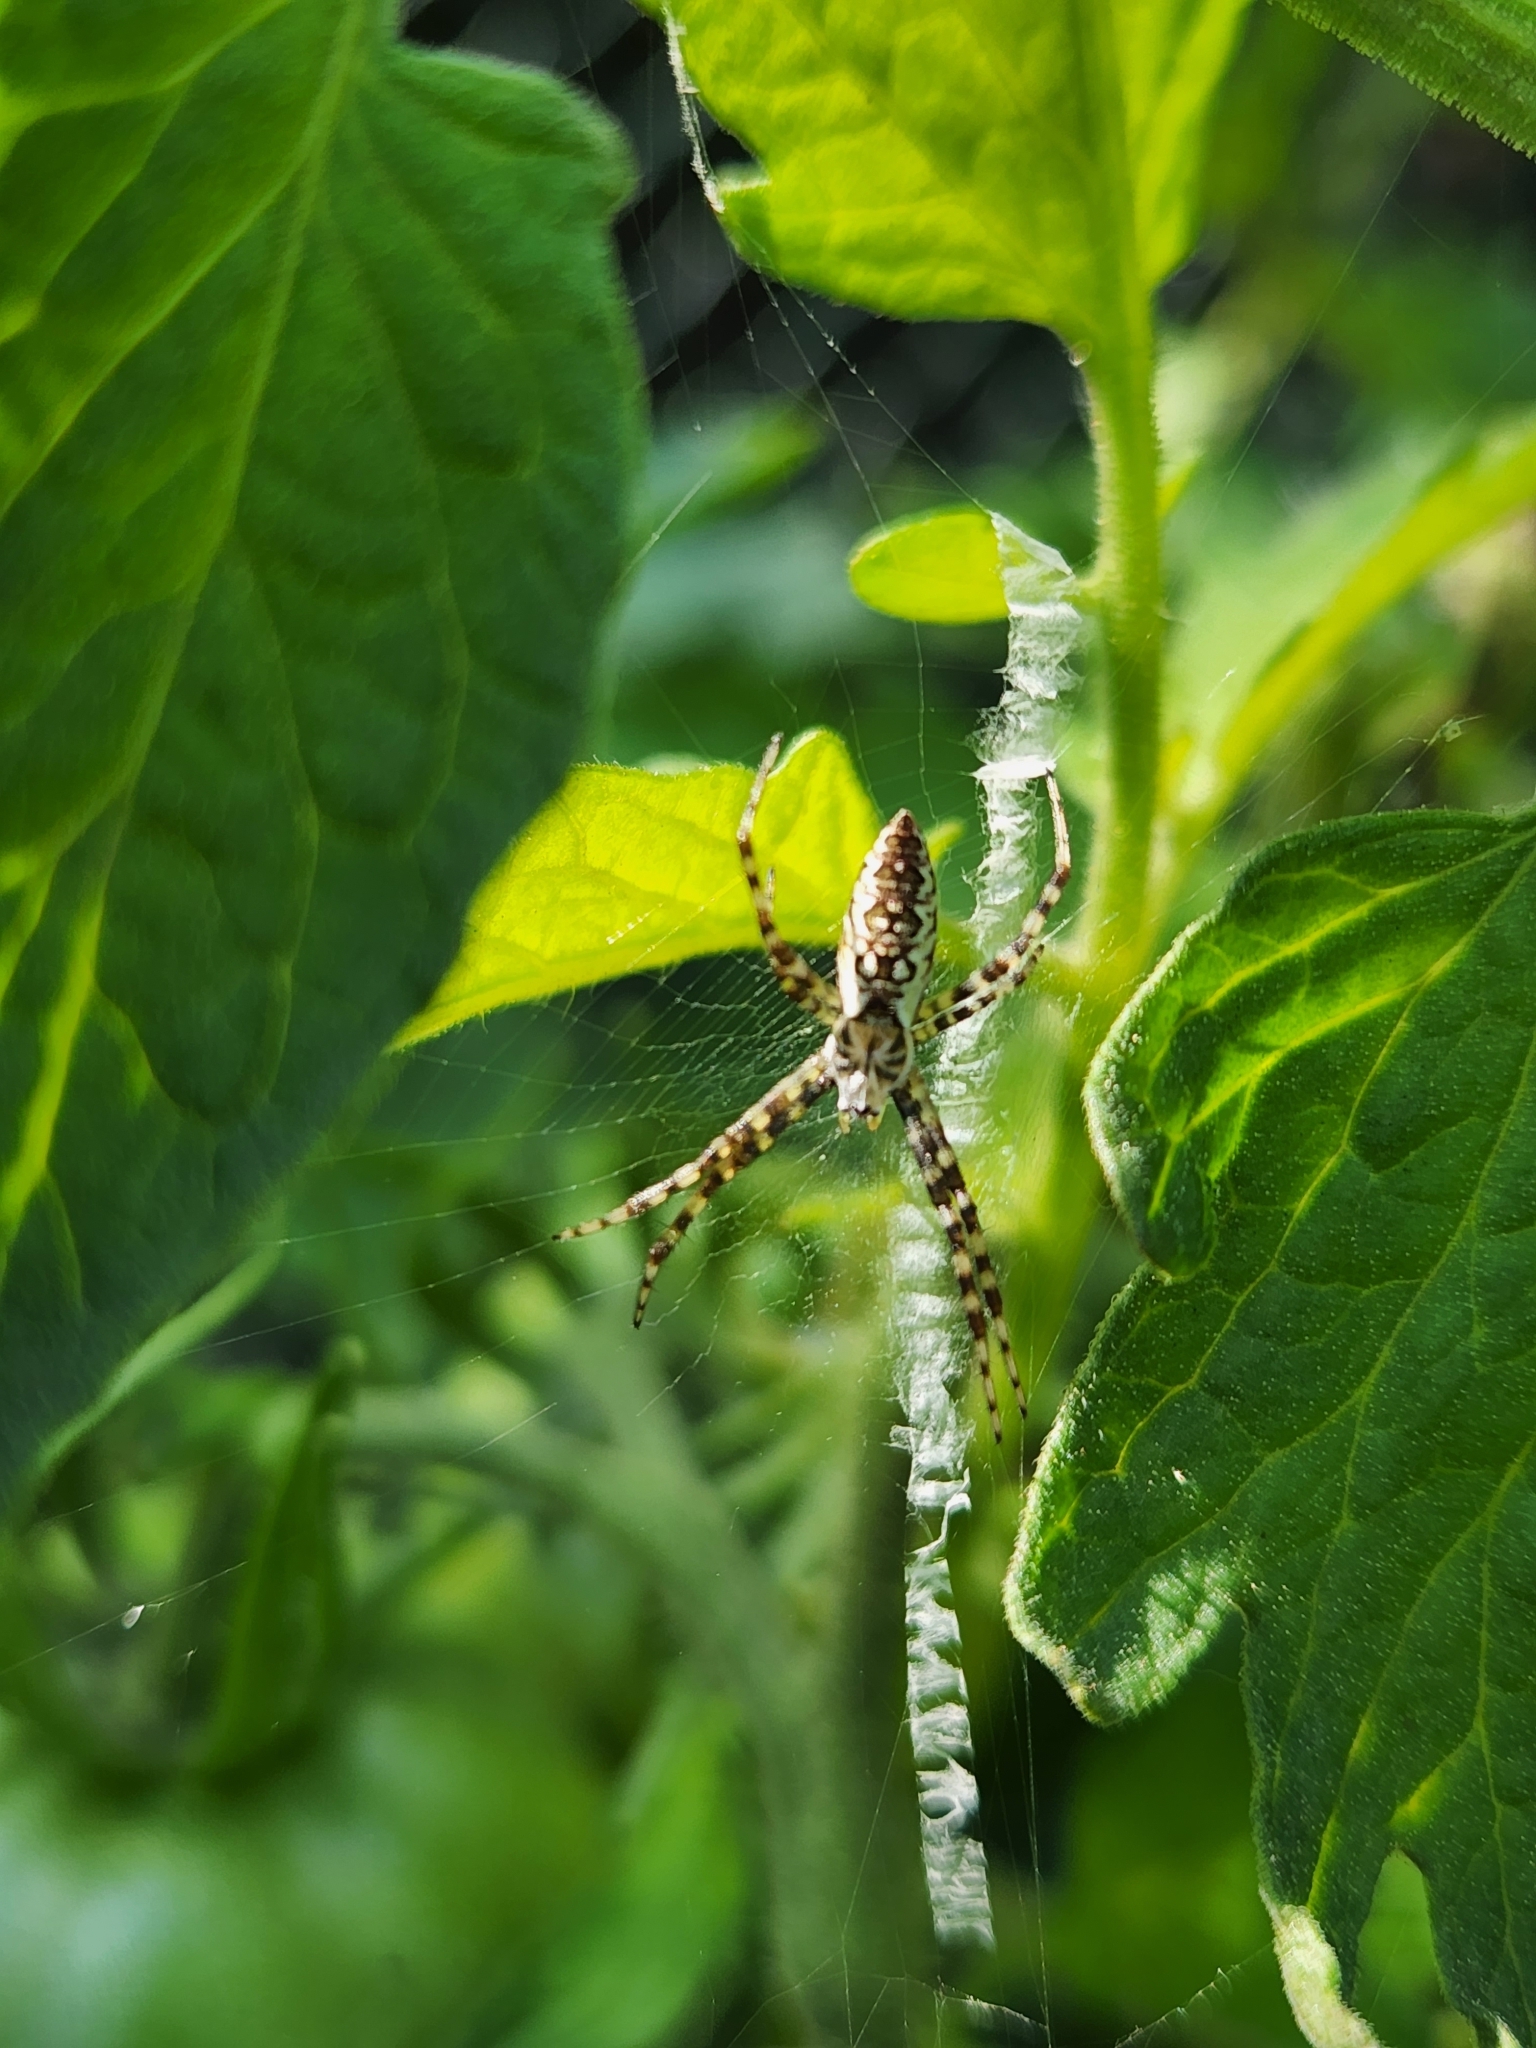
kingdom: Animalia
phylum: Arthropoda
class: Arachnida
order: Araneae
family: Araneidae
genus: Argiope
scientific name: Argiope aurantia
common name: Orb weavers
